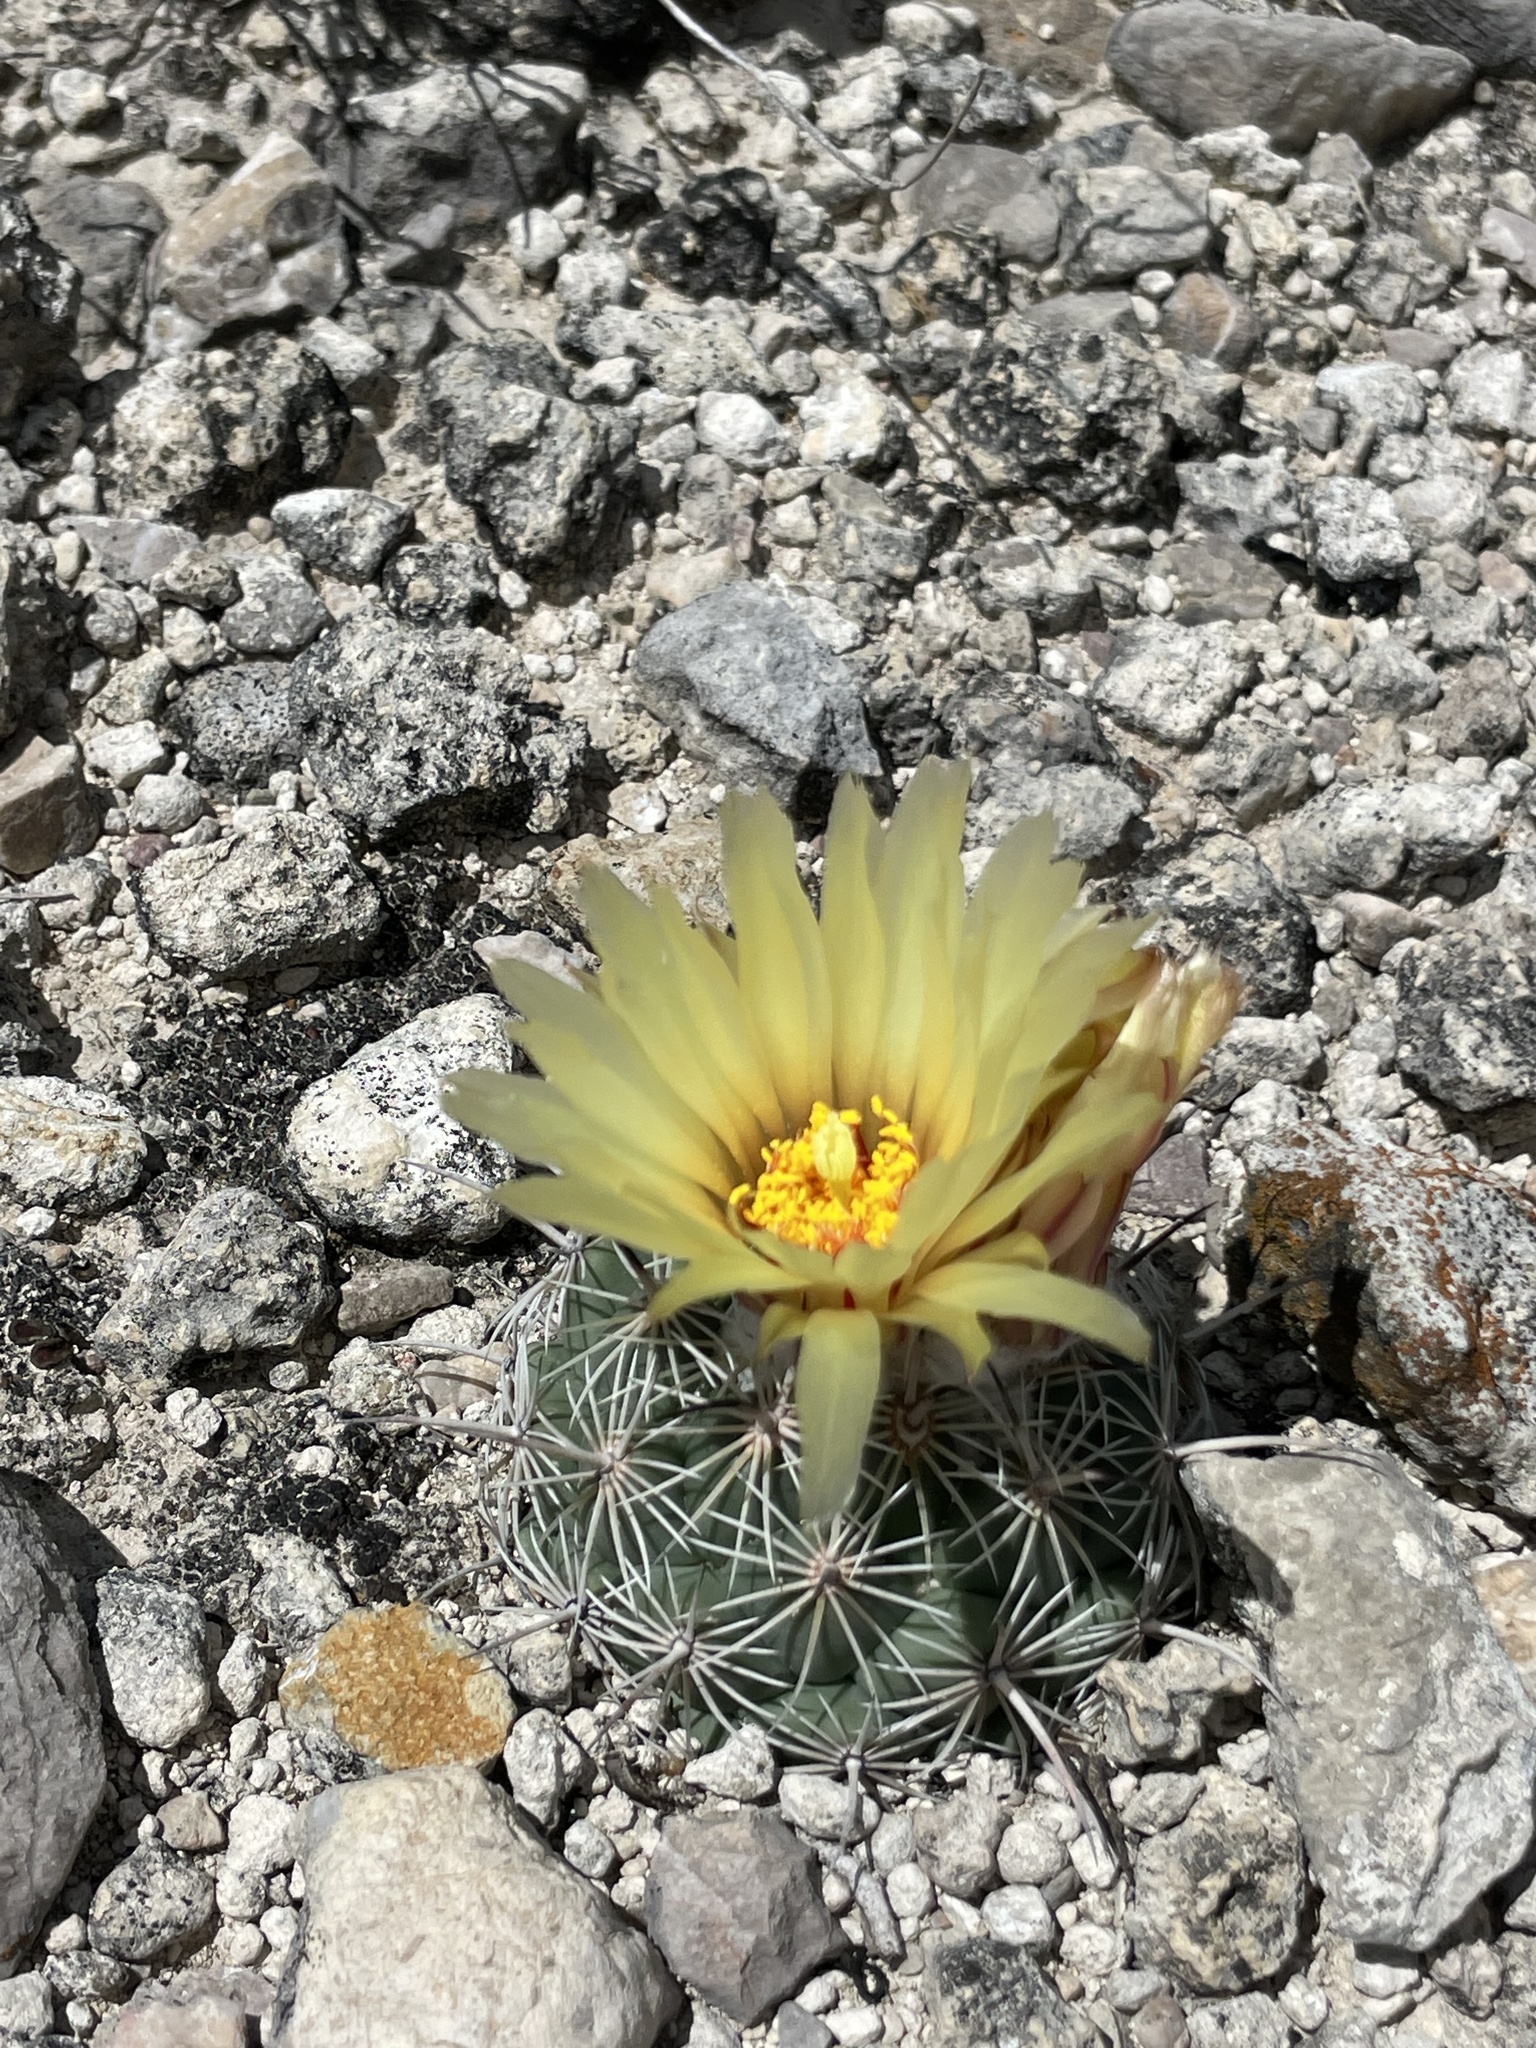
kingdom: Plantae
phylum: Tracheophyta
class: Magnoliopsida
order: Caryophyllales
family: Cactaceae
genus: Coryphantha
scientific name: Coryphantha pallida
